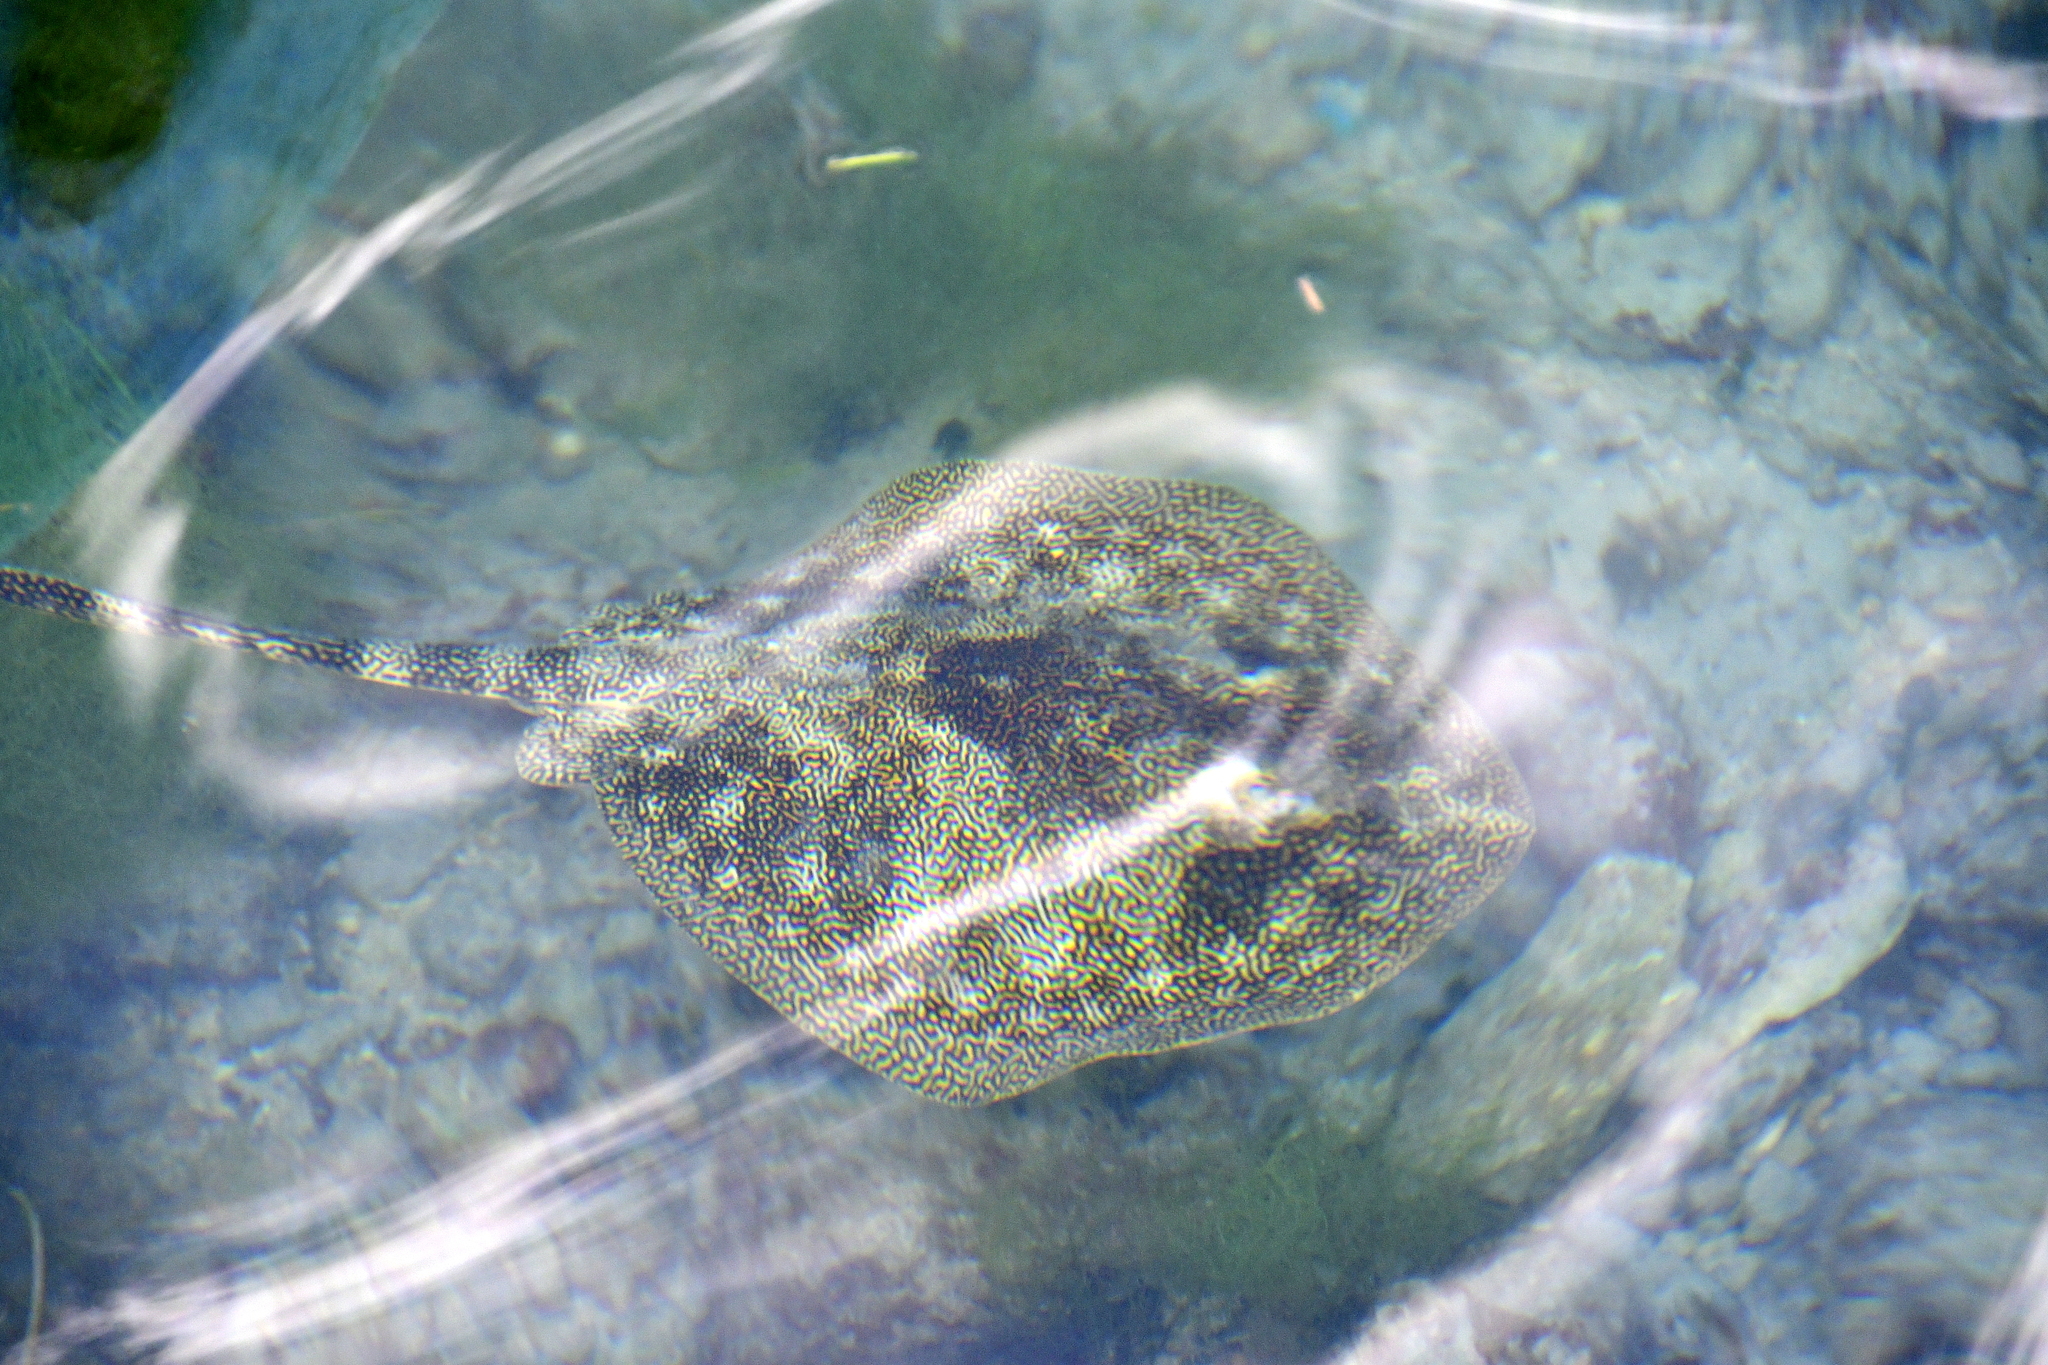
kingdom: Animalia
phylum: Chordata
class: Elasmobranchii
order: Myliobatiformes
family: Urotrygonidae
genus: Urobatis
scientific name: Urobatis jamaicensis
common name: Yellow stingray
